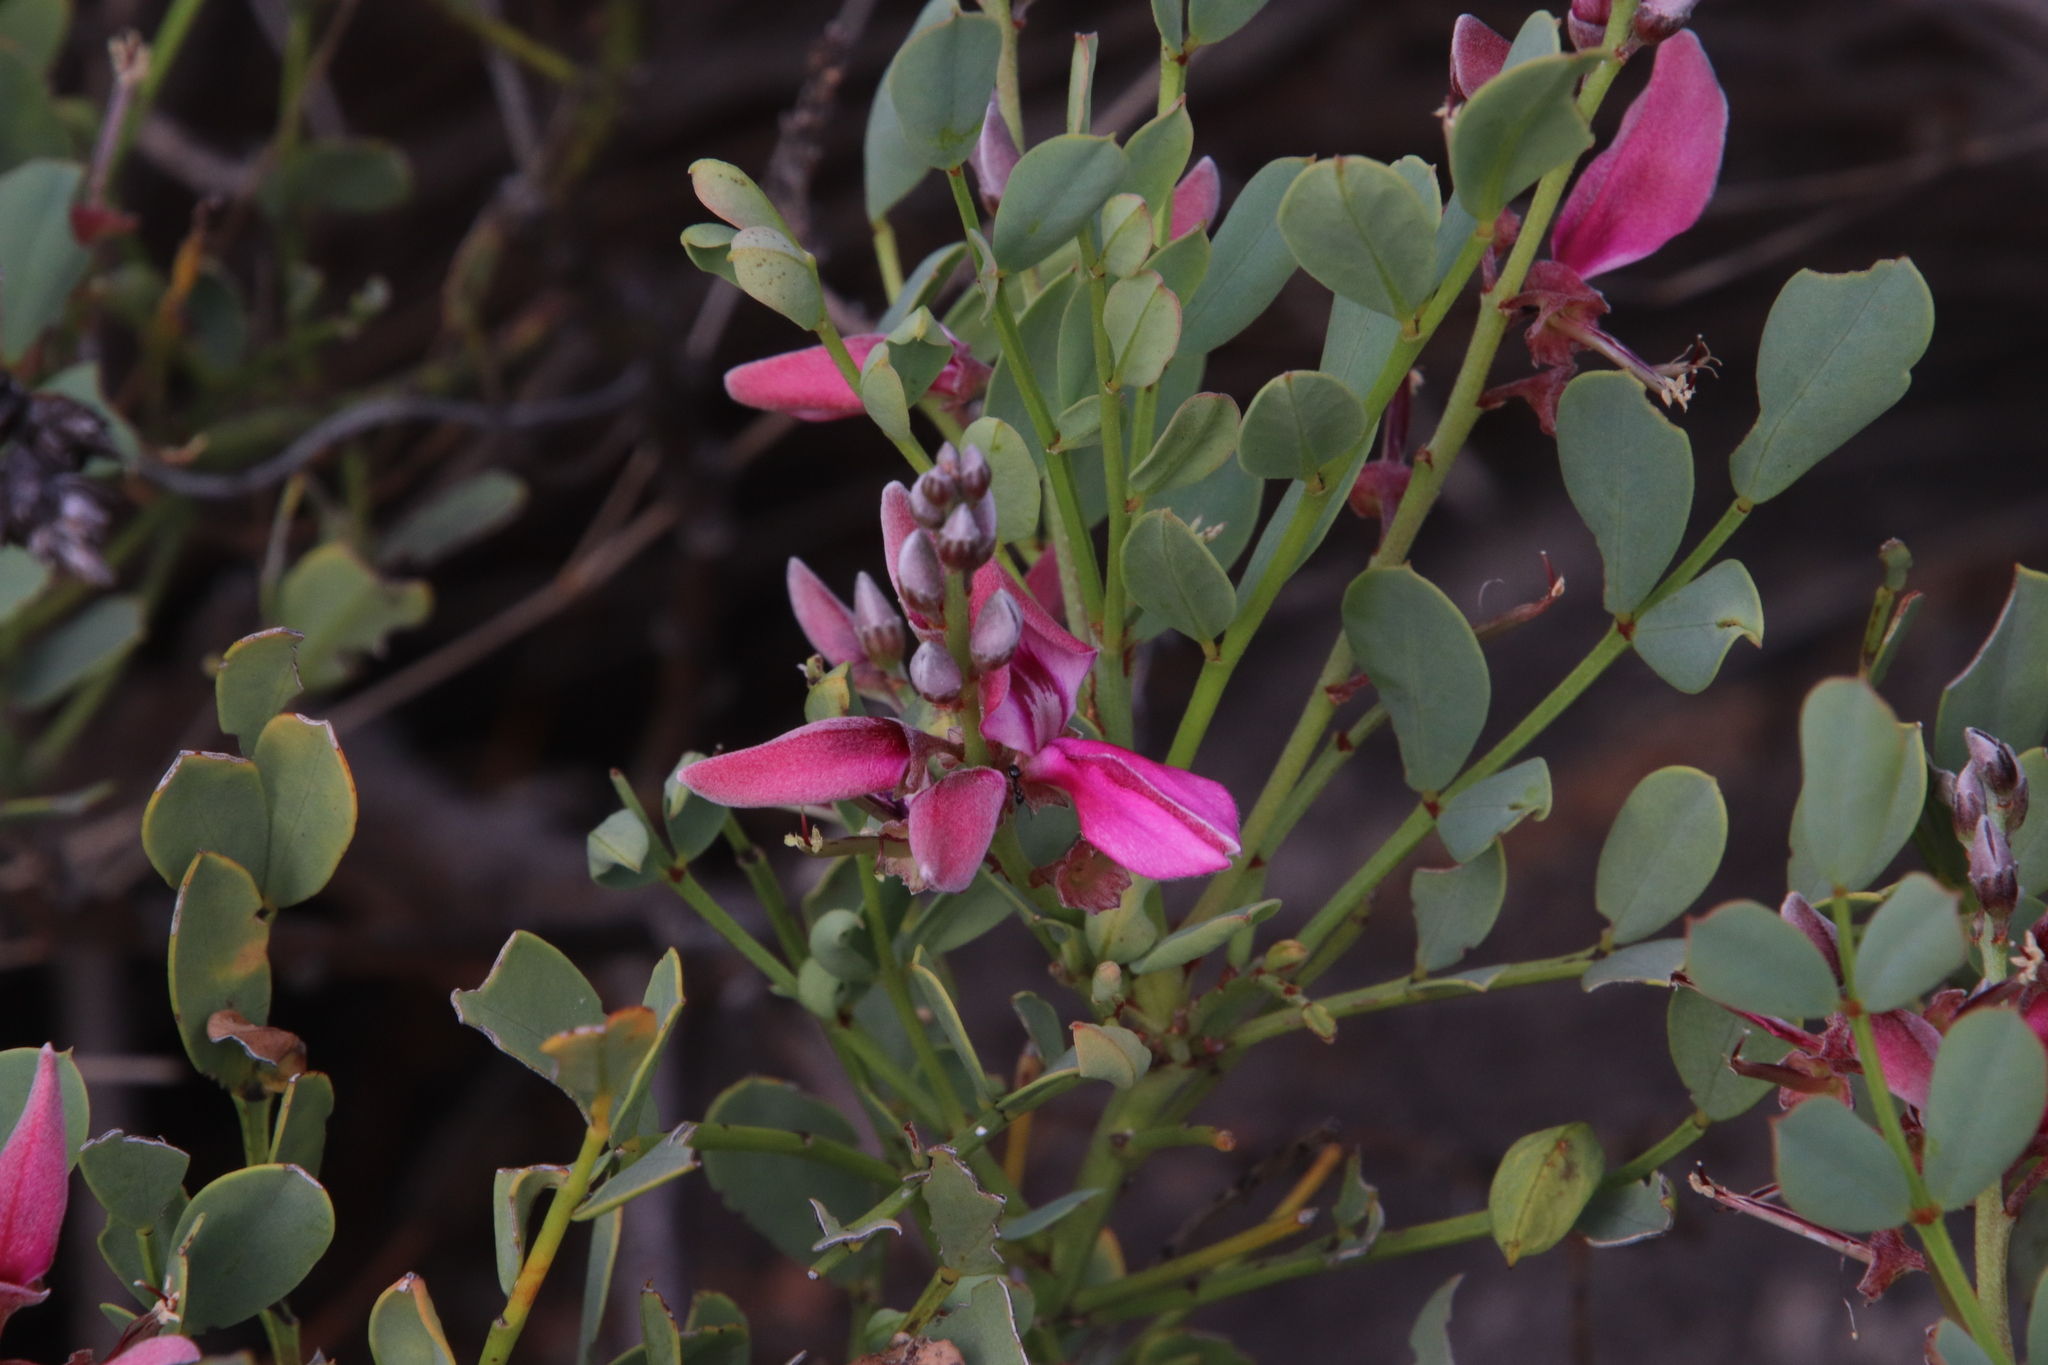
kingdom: Plantae
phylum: Tracheophyta
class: Magnoliopsida
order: Fabales
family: Fabaceae
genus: Indigofera
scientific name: Indigofera frutescens
